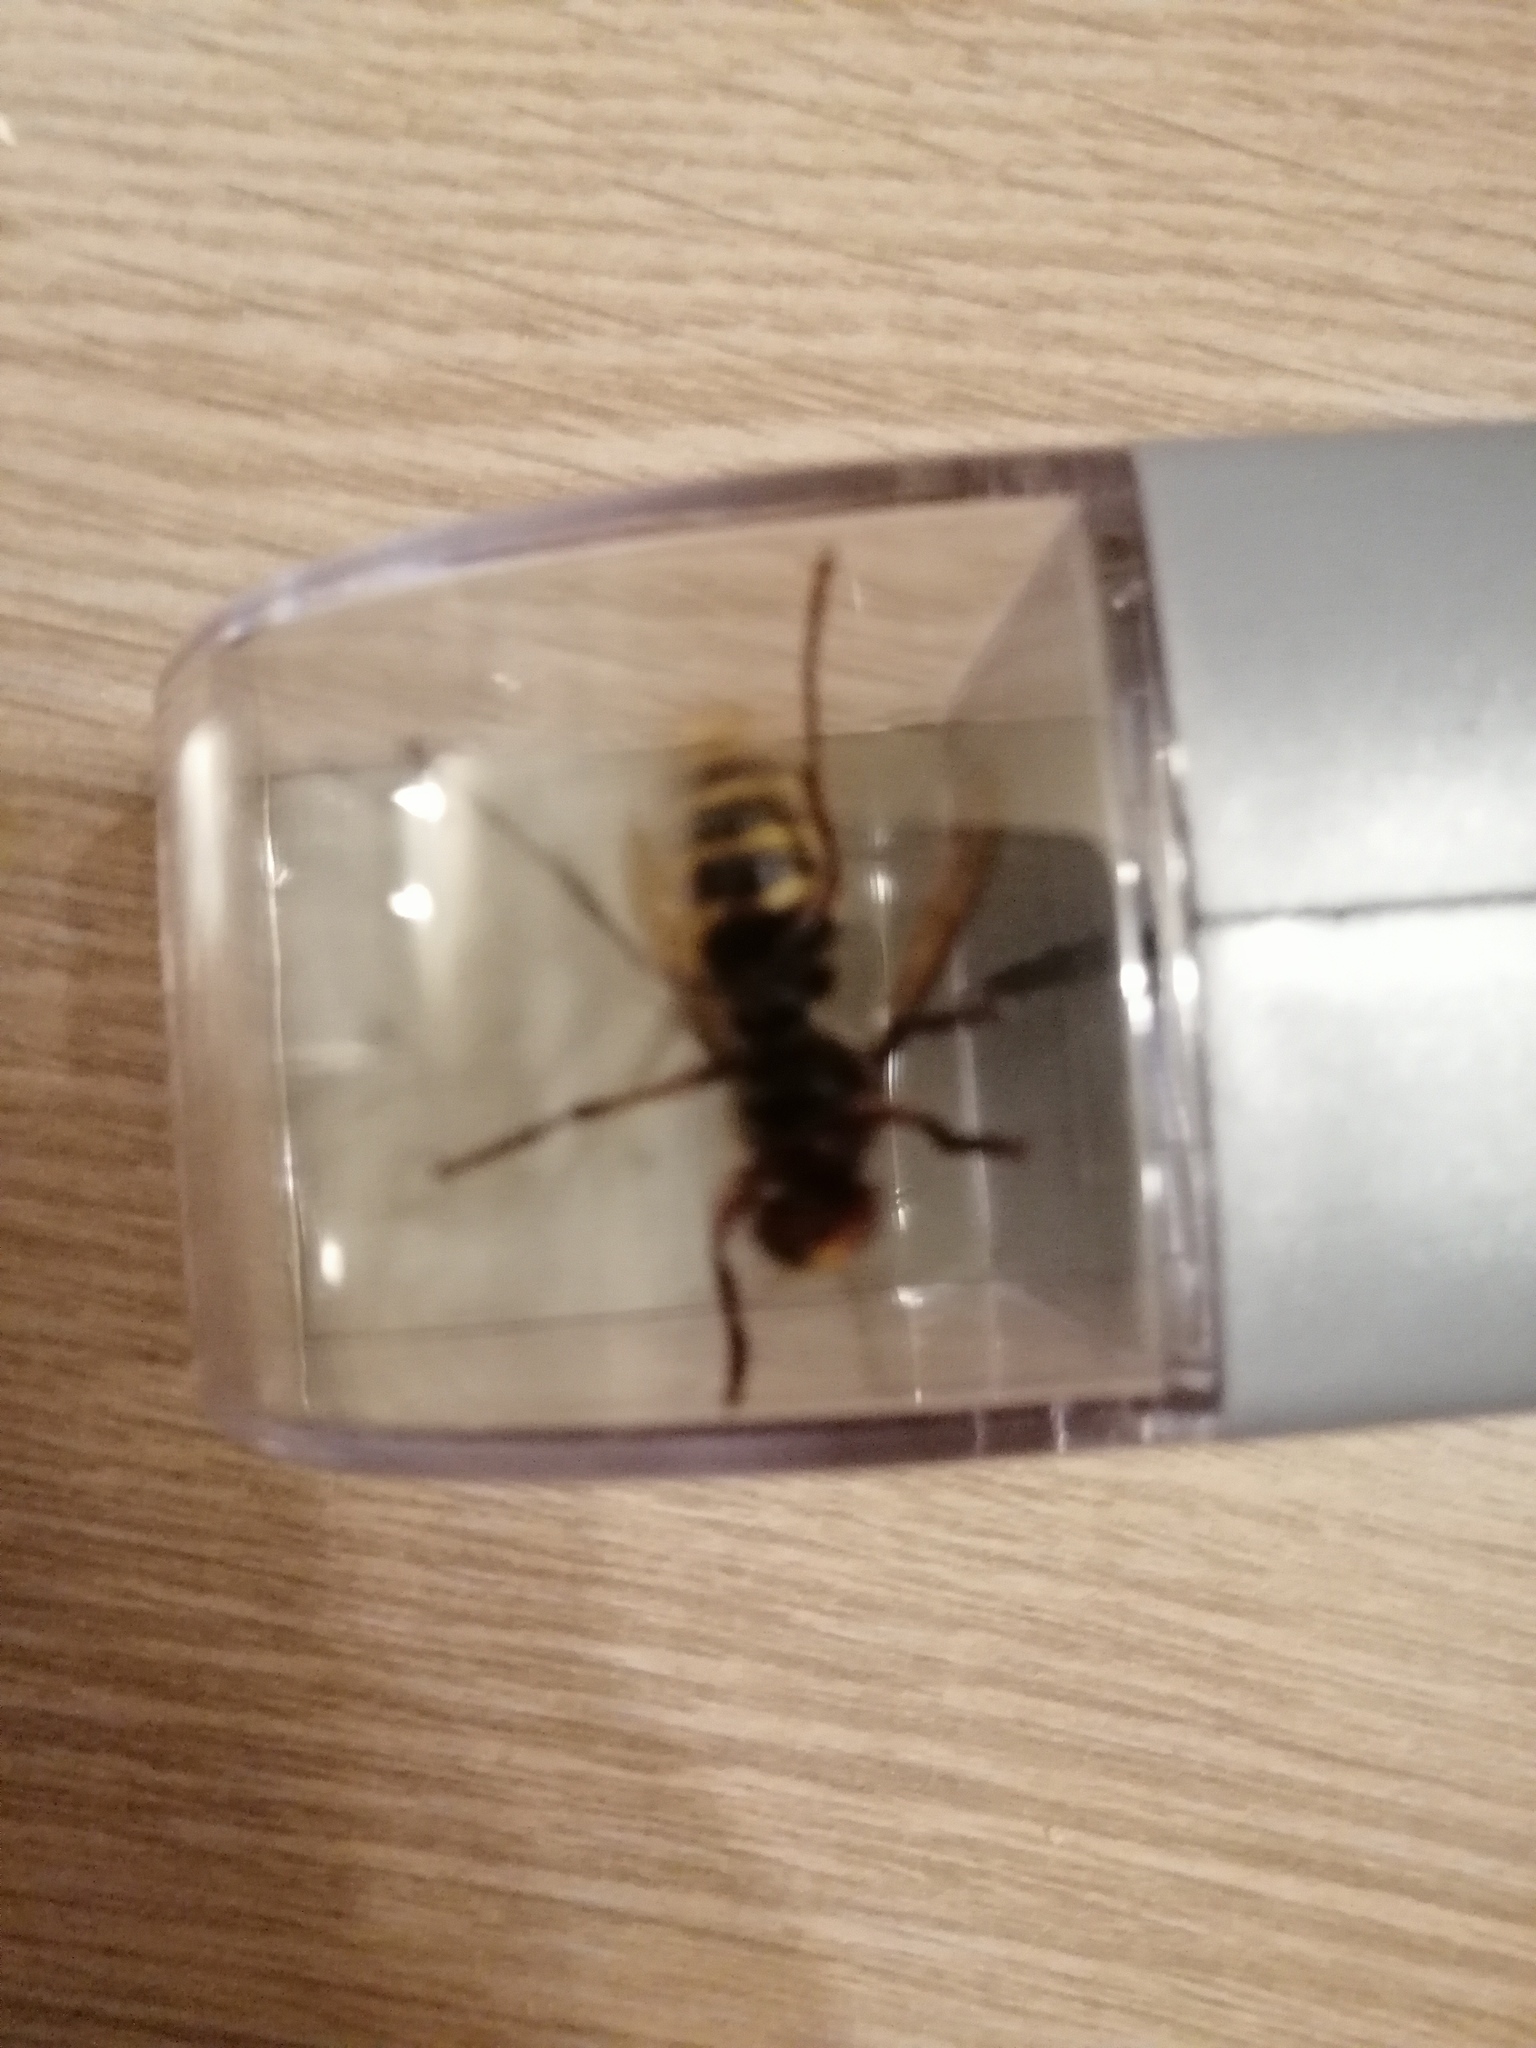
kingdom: Animalia
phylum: Arthropoda
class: Insecta
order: Hymenoptera
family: Vespidae
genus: Vespa
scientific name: Vespa crabro
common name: Hornet
